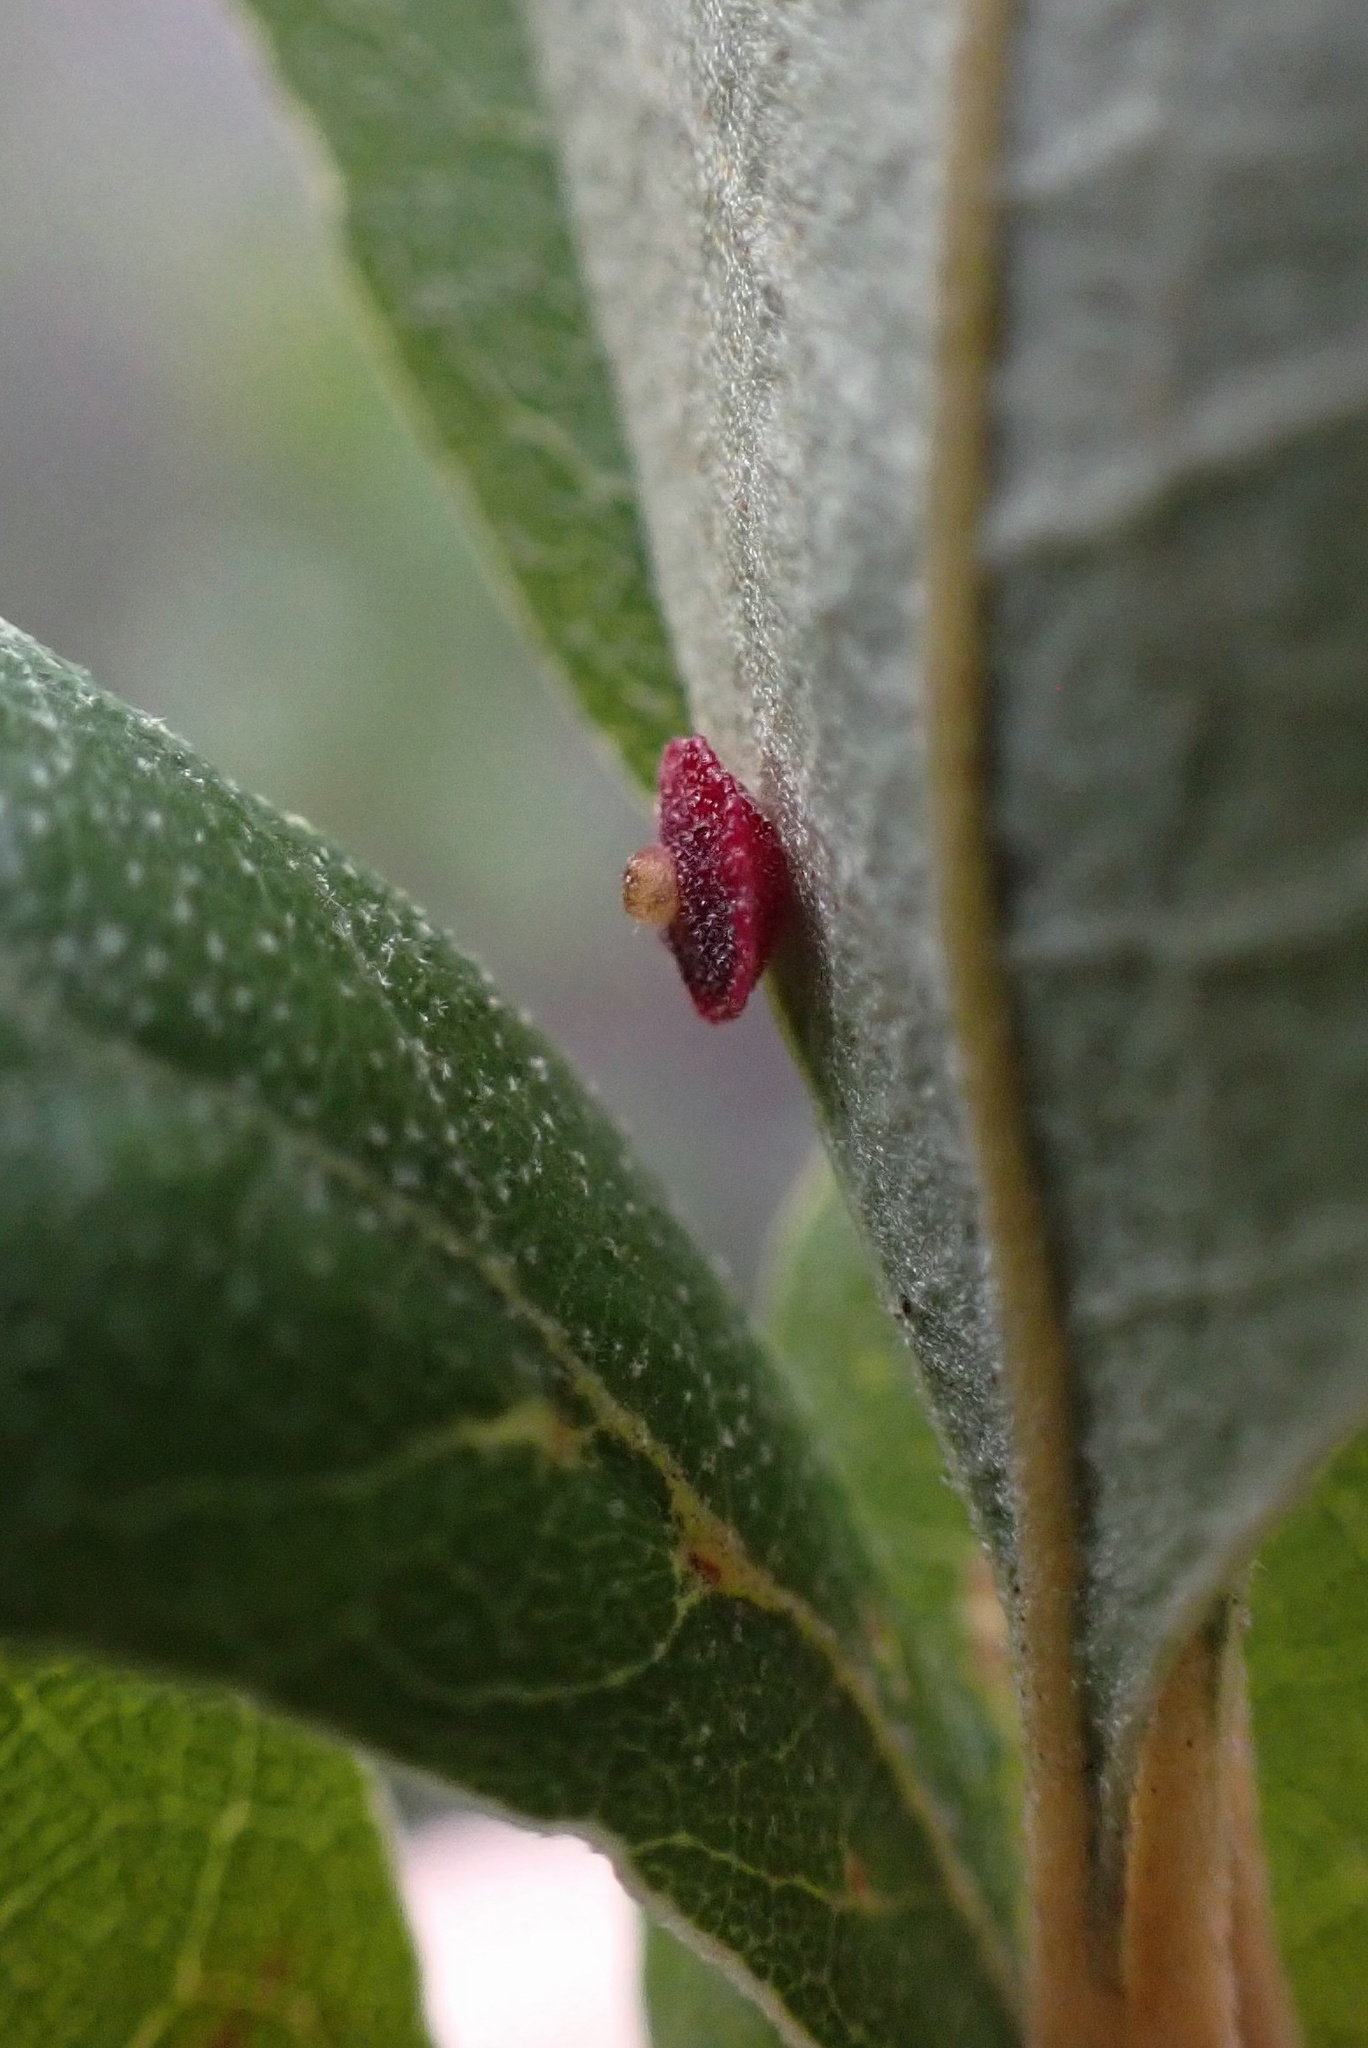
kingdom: Animalia
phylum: Arthropoda
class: Insecta
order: Hymenoptera
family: Cynipidae
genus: Andricus
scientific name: Andricus
